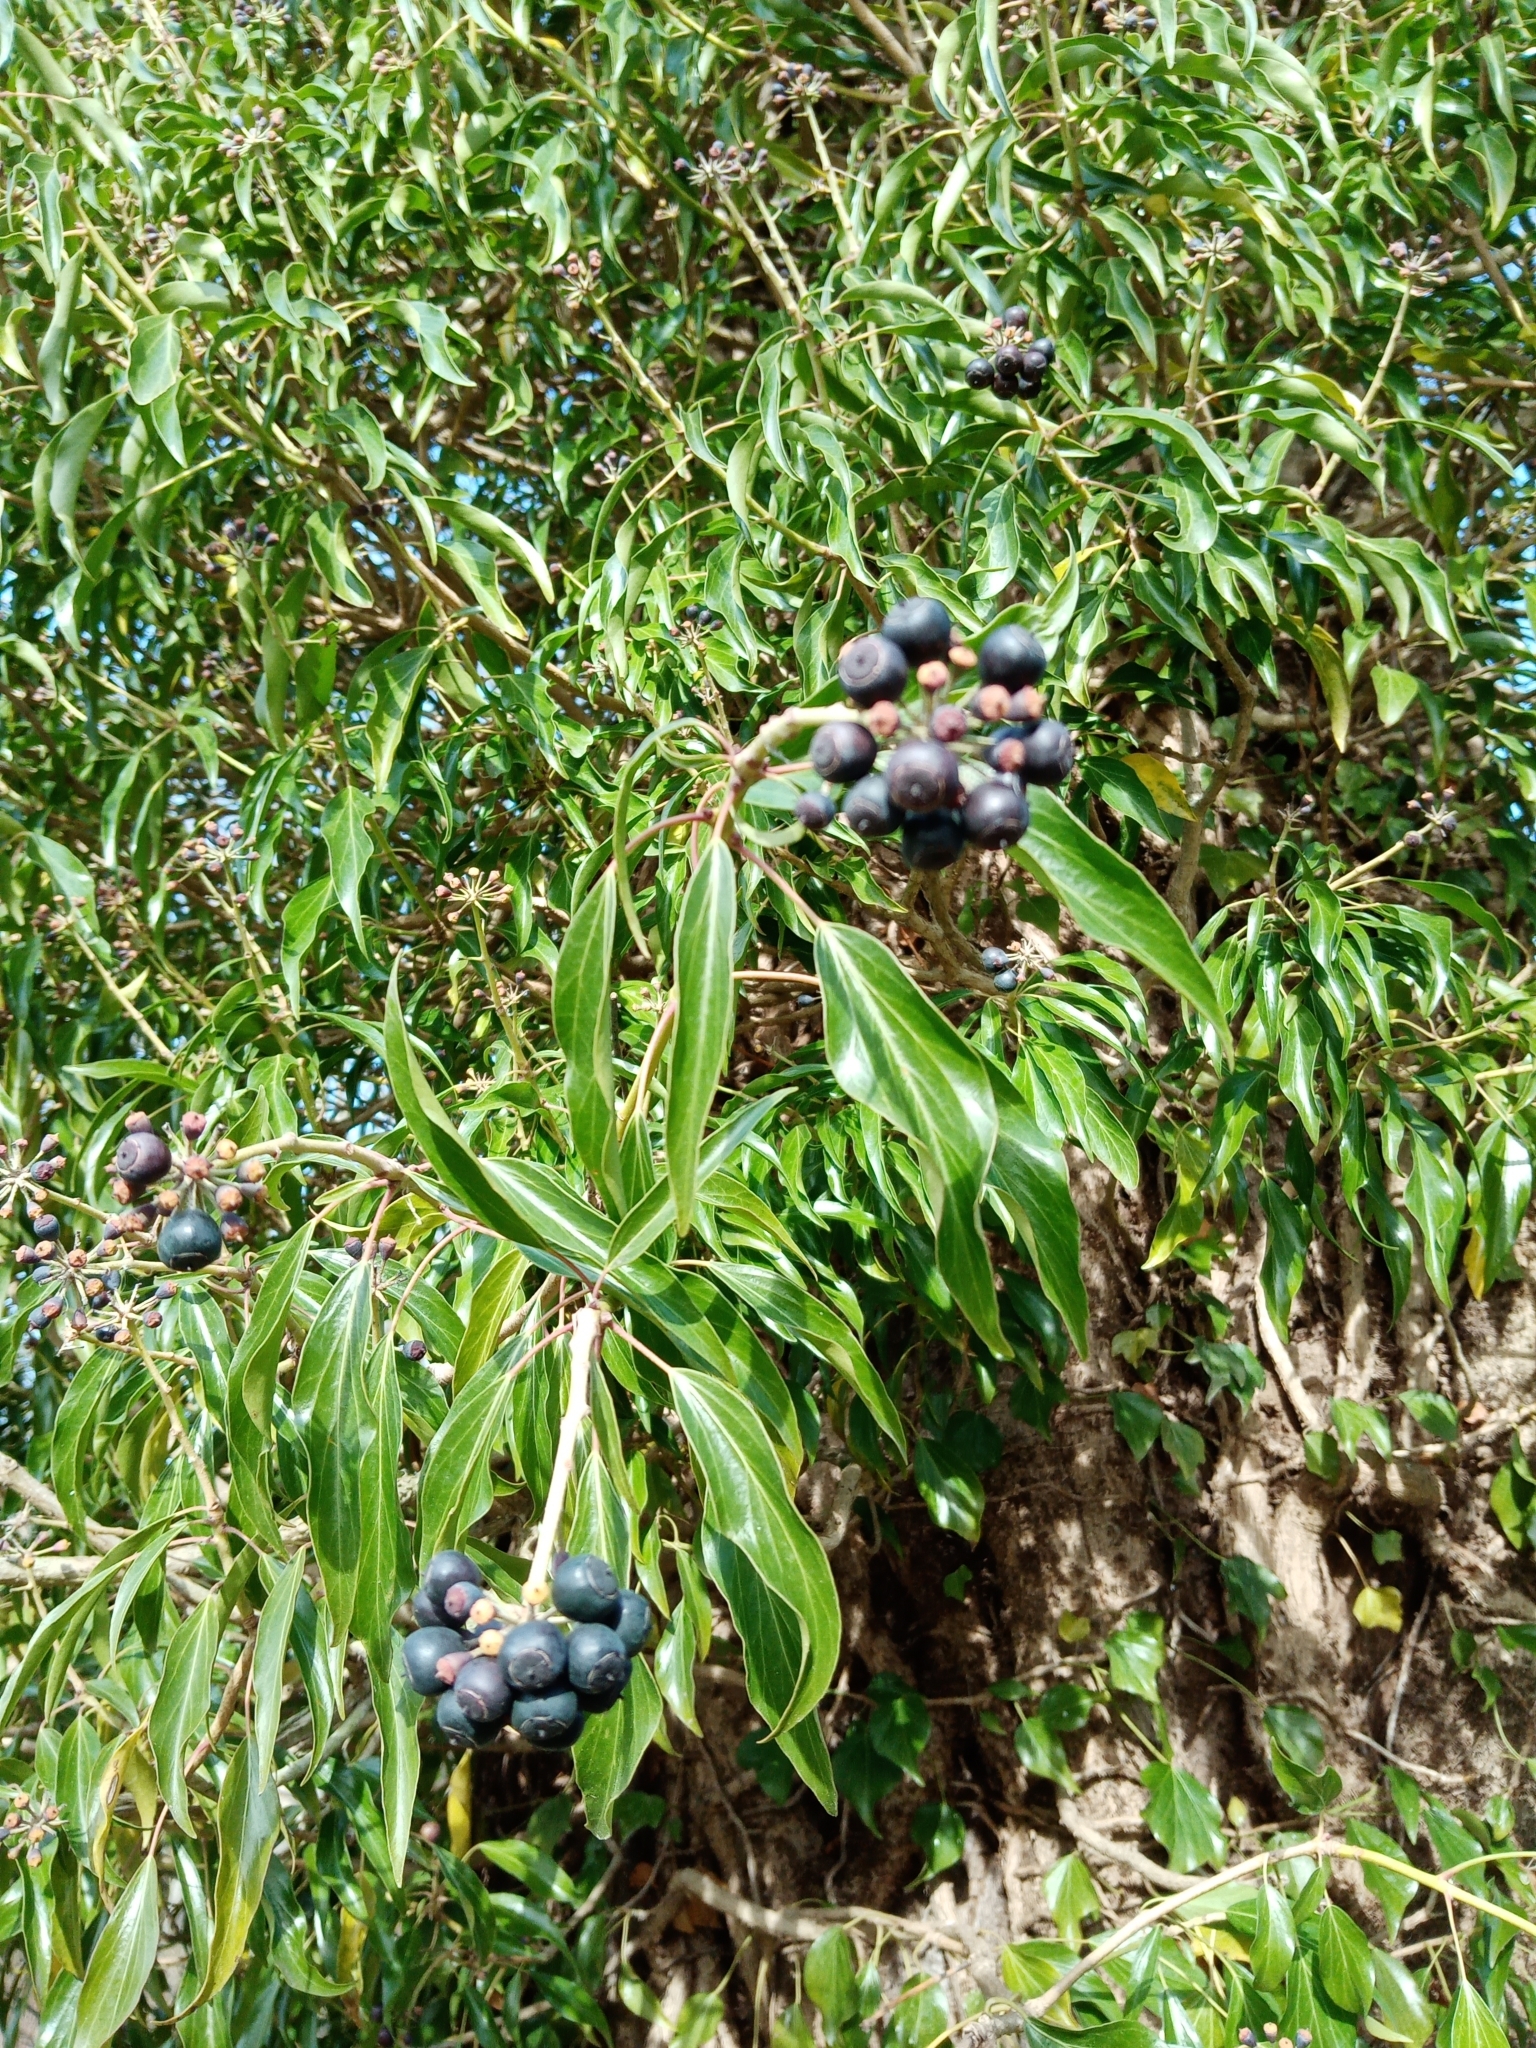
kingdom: Plantae
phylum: Tracheophyta
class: Magnoliopsida
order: Apiales
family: Araliaceae
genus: Hedera
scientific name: Hedera helix
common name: Ivy
